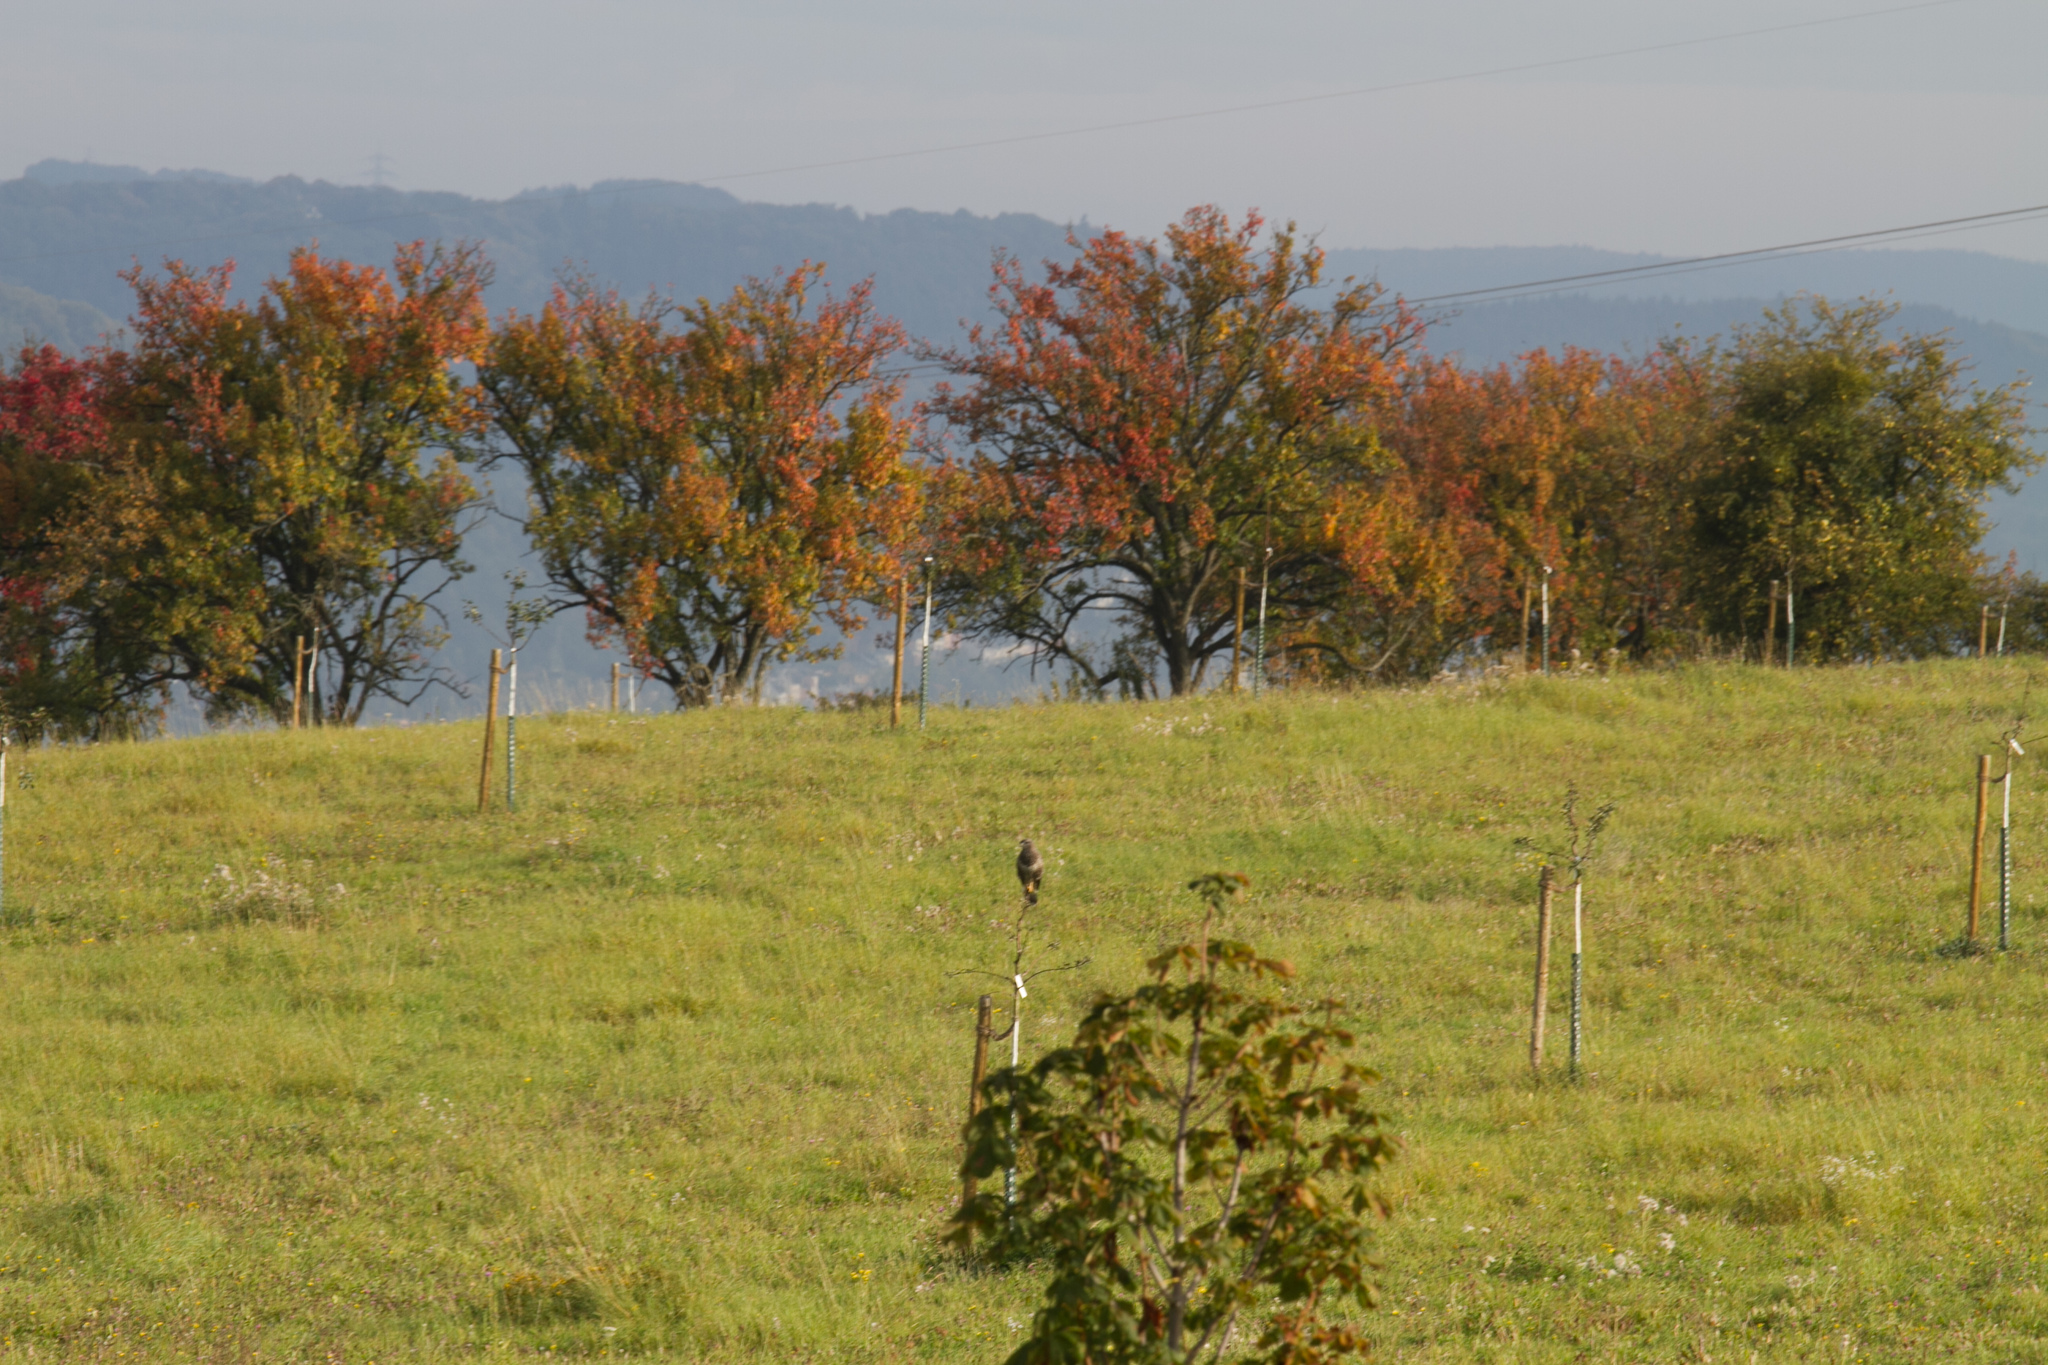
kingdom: Animalia
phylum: Chordata
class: Aves
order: Accipitriformes
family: Accipitridae
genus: Buteo
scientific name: Buteo buteo
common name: Common buzzard
